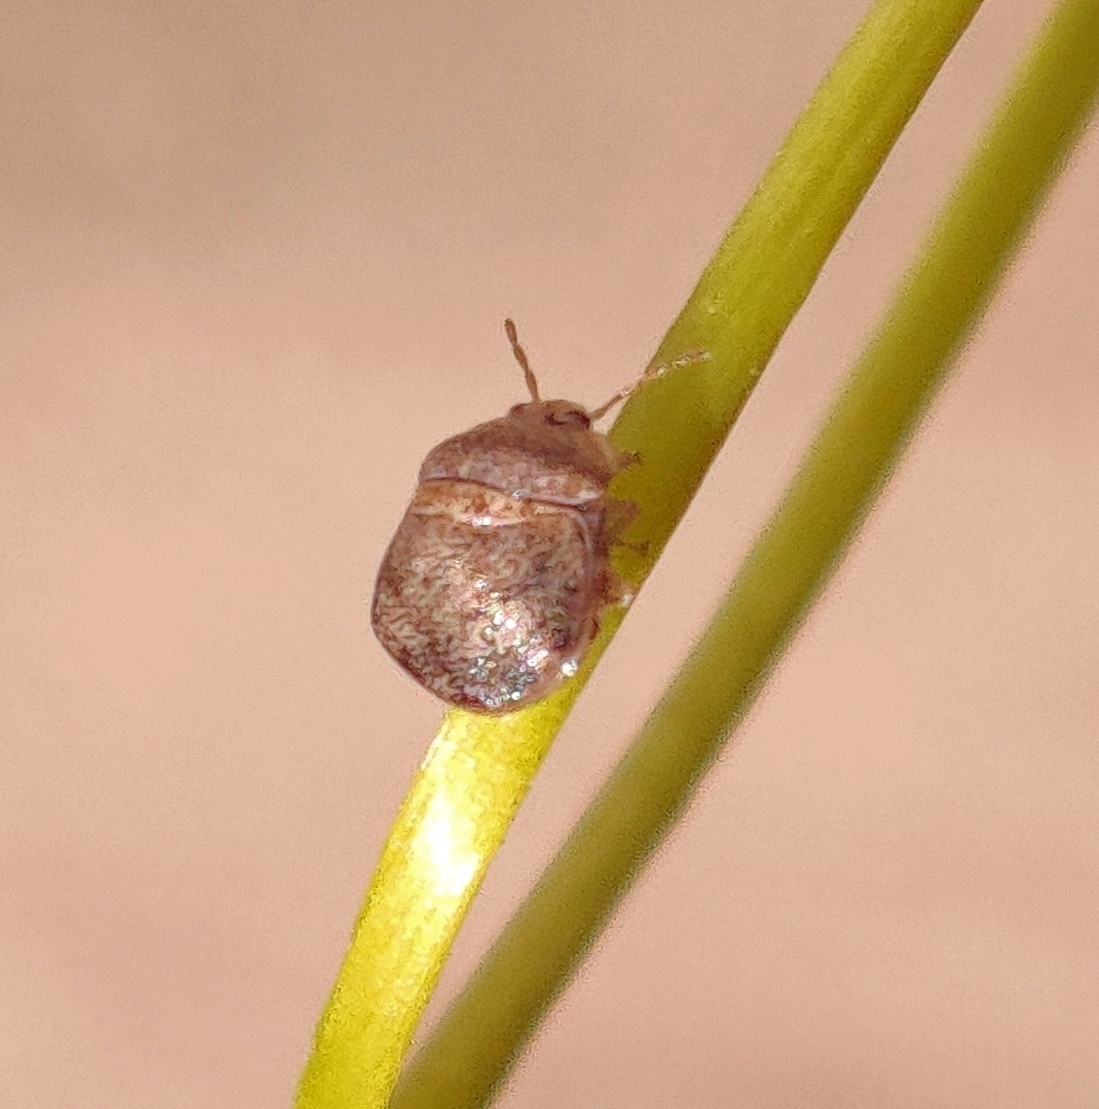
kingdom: Animalia
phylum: Arthropoda
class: Insecta
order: Hemiptera
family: Plataspidae
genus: Megacopta
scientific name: Megacopta cribraria
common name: Bean plataspid
